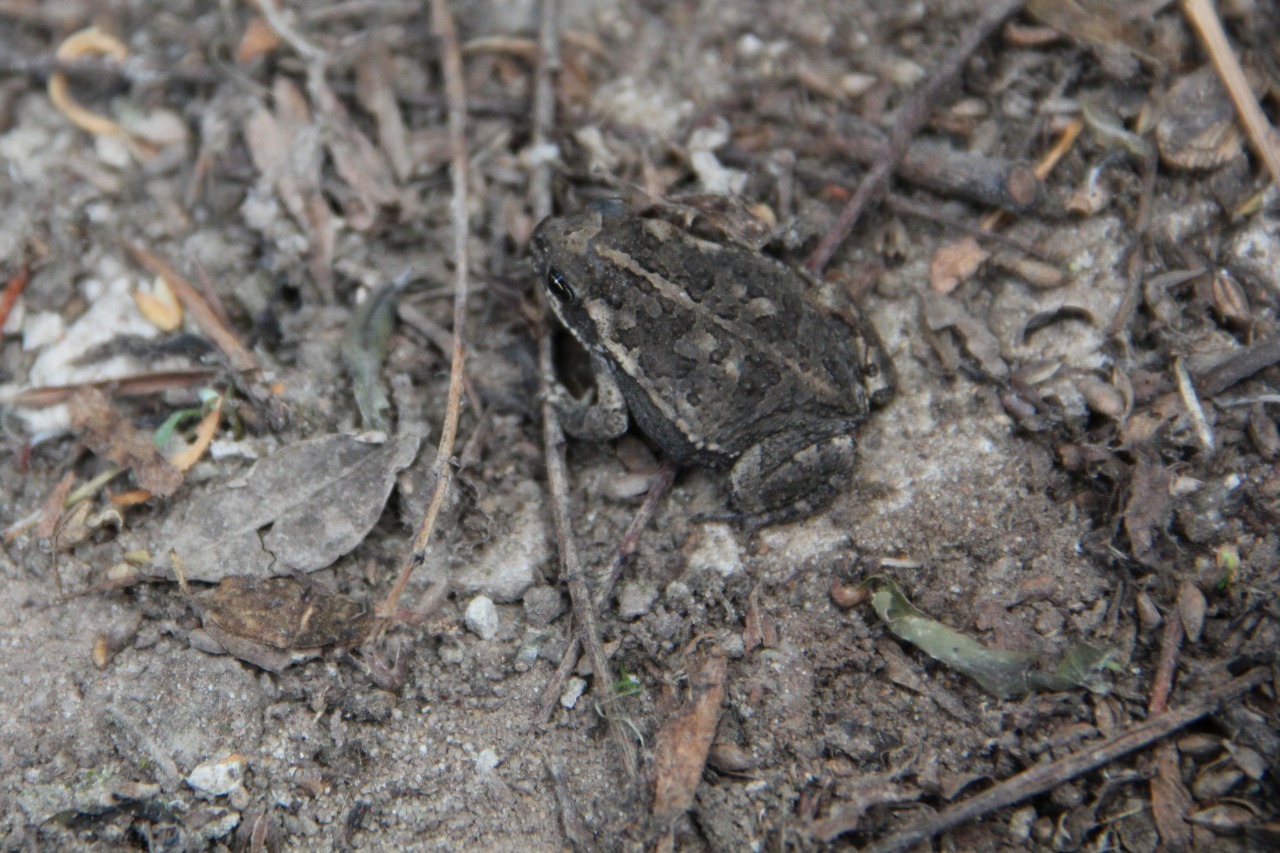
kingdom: Animalia
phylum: Chordata
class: Amphibia
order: Anura
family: Bufonidae
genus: Rhinella
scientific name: Rhinella arenarum
